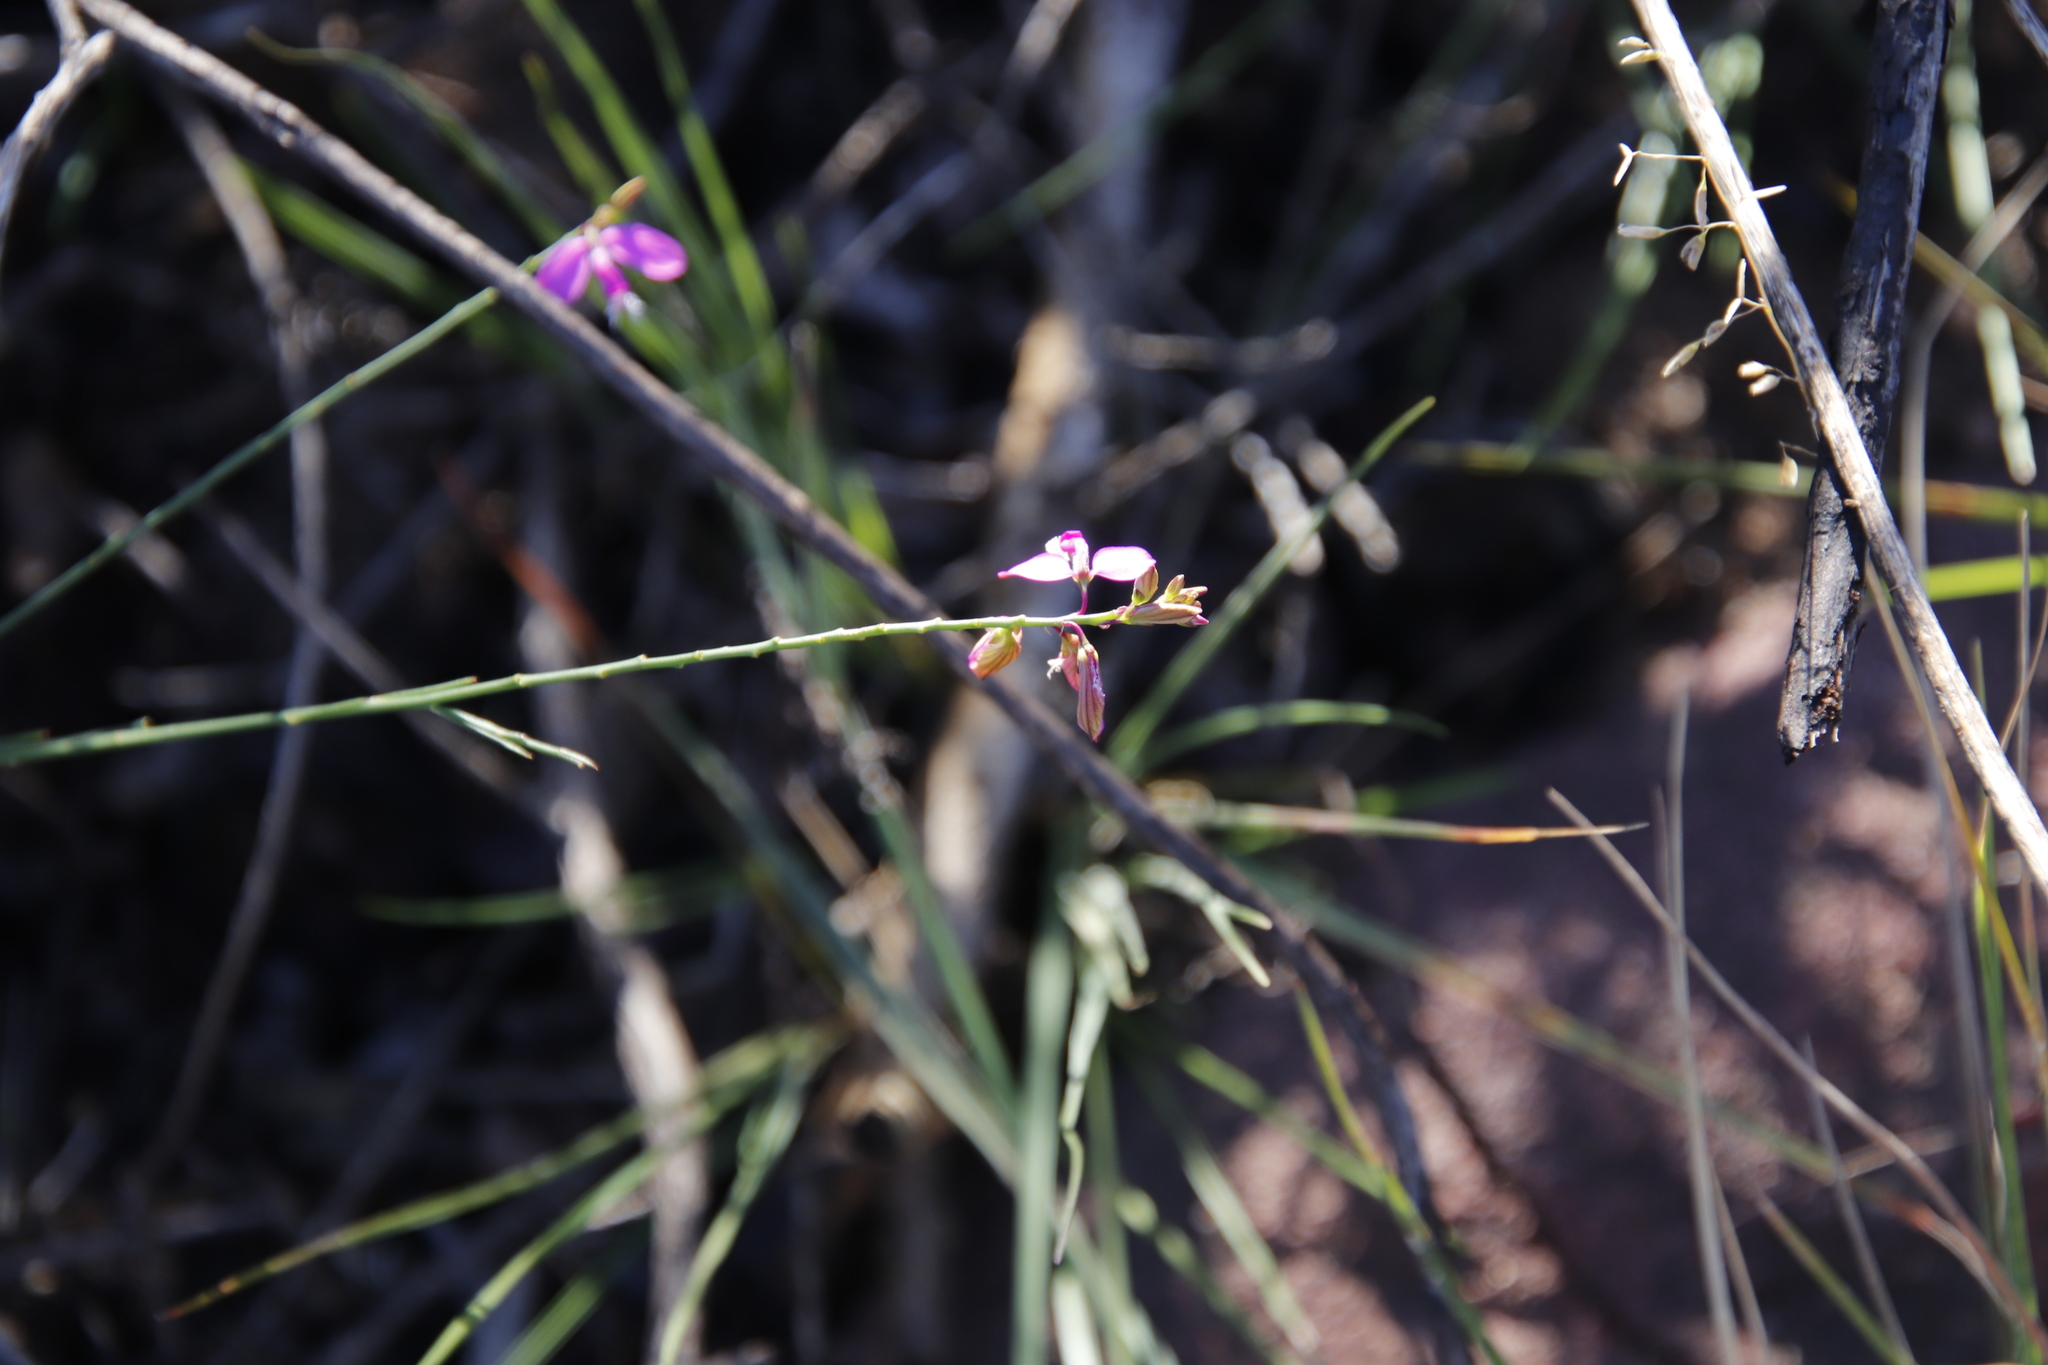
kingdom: Plantae
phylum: Tracheophyta
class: Magnoliopsida
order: Fabales
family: Polygalaceae
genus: Polygala
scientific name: Polygala garcini
